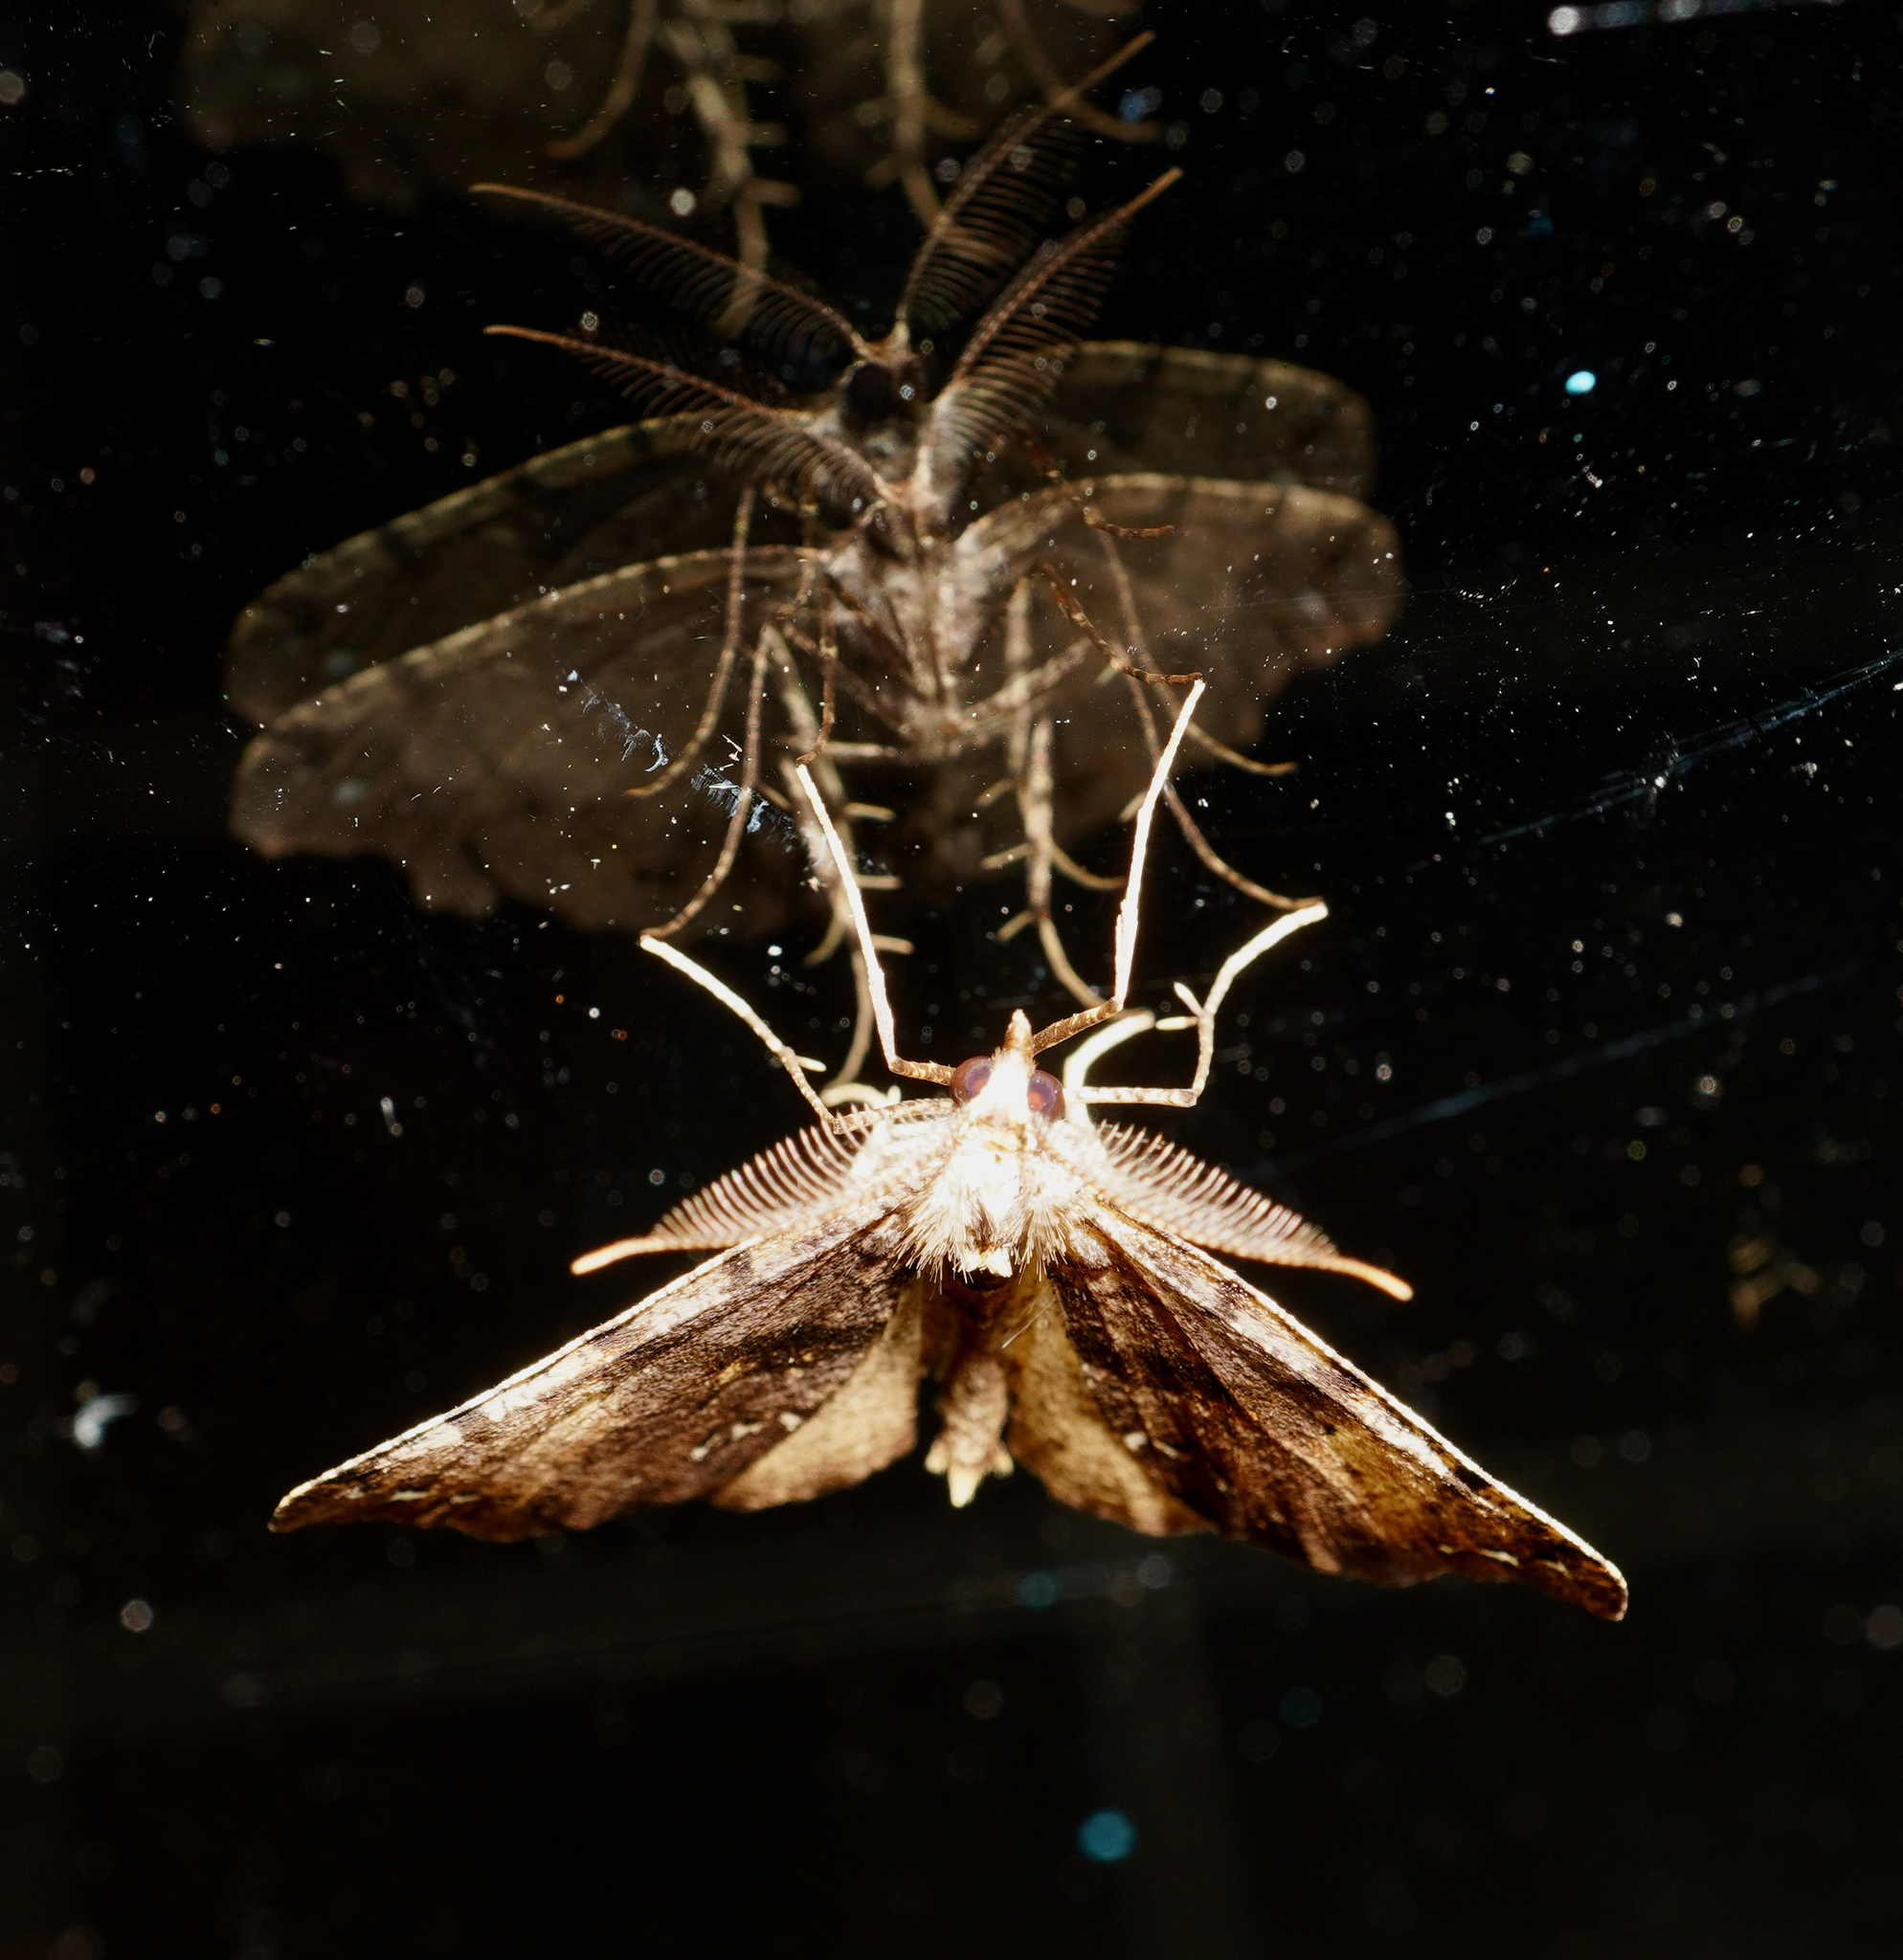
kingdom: Animalia
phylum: Arthropoda
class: Insecta
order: Lepidoptera
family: Geometridae
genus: Chalastra
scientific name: Chalastra pellurgata
